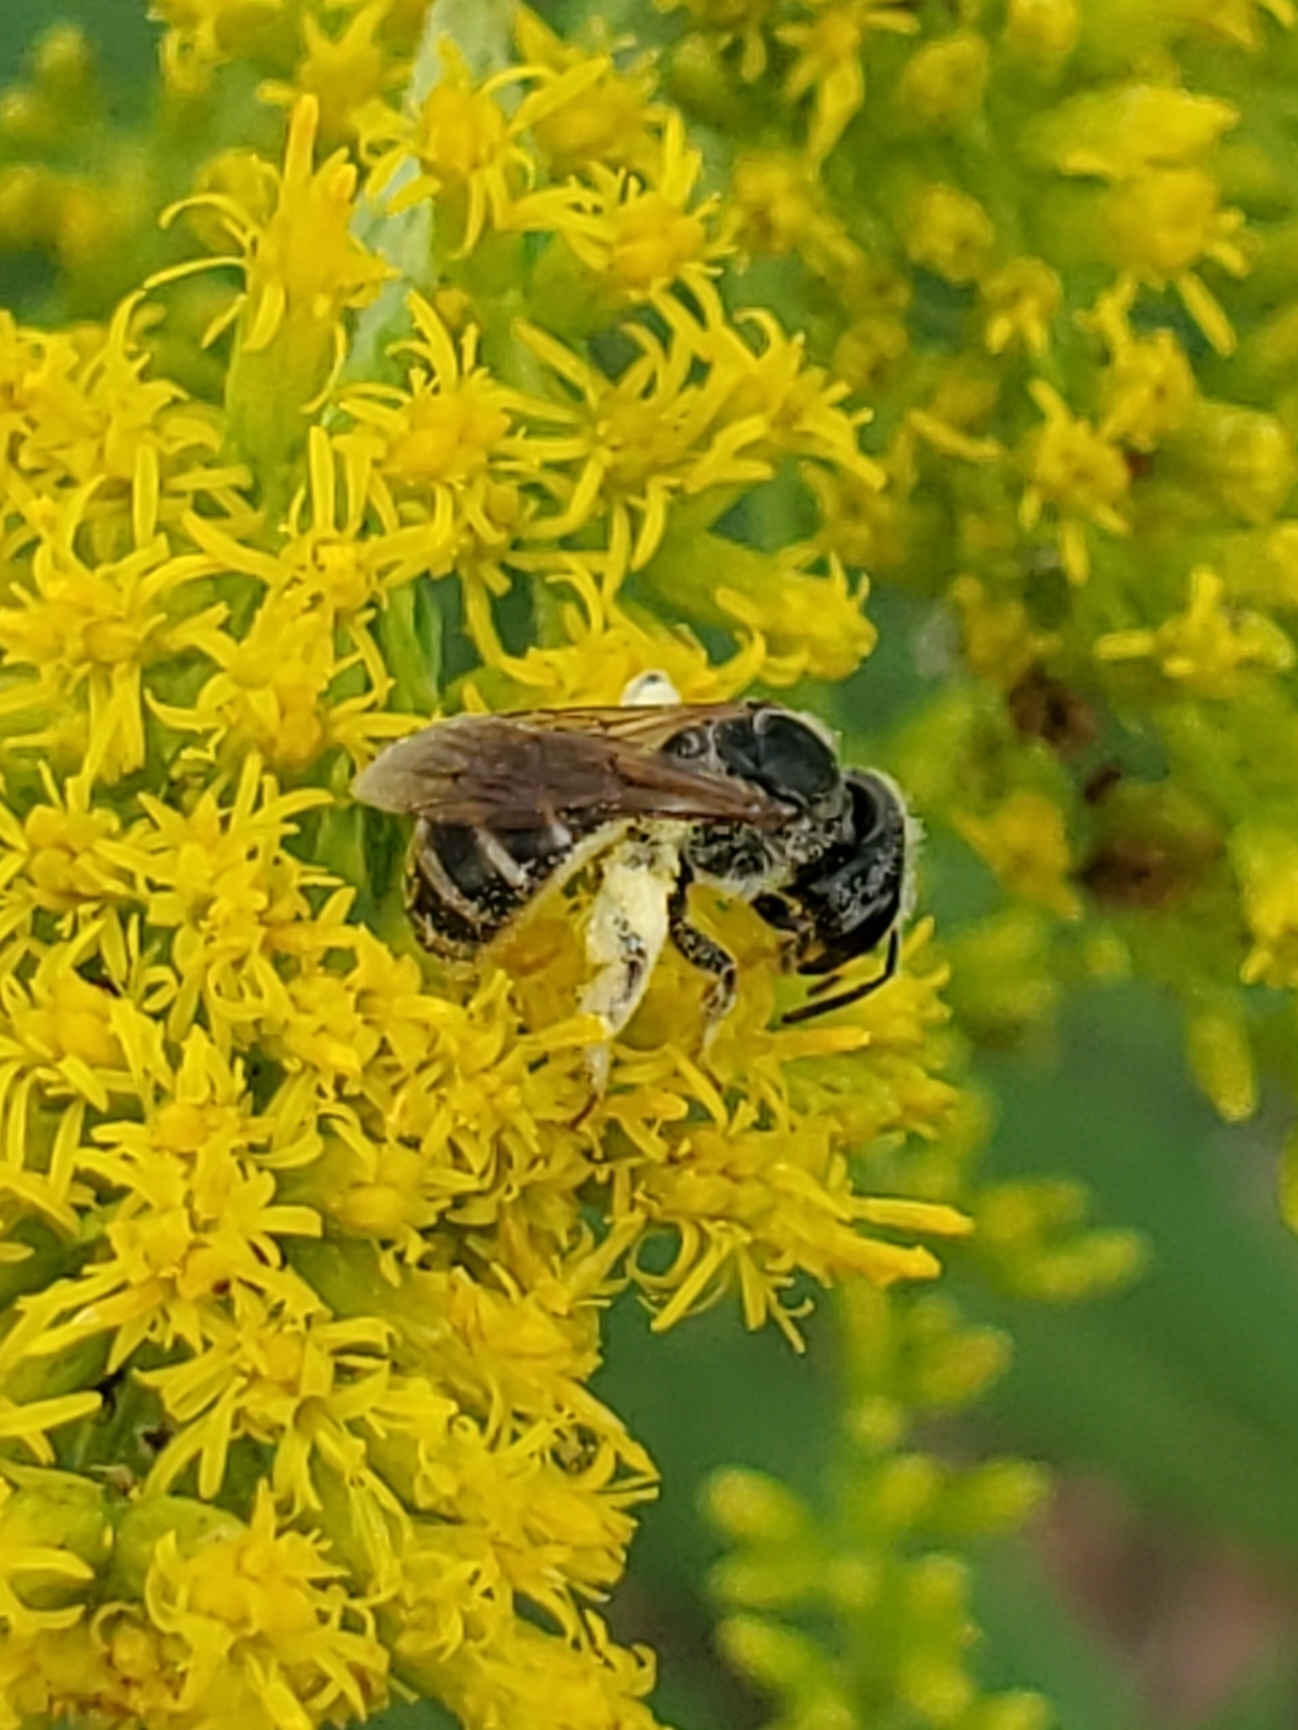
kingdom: Animalia
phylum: Arthropoda
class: Insecta
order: Hymenoptera
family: Halictidae
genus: Halictus
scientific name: Halictus ligatus
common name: Ligated furrow bee
